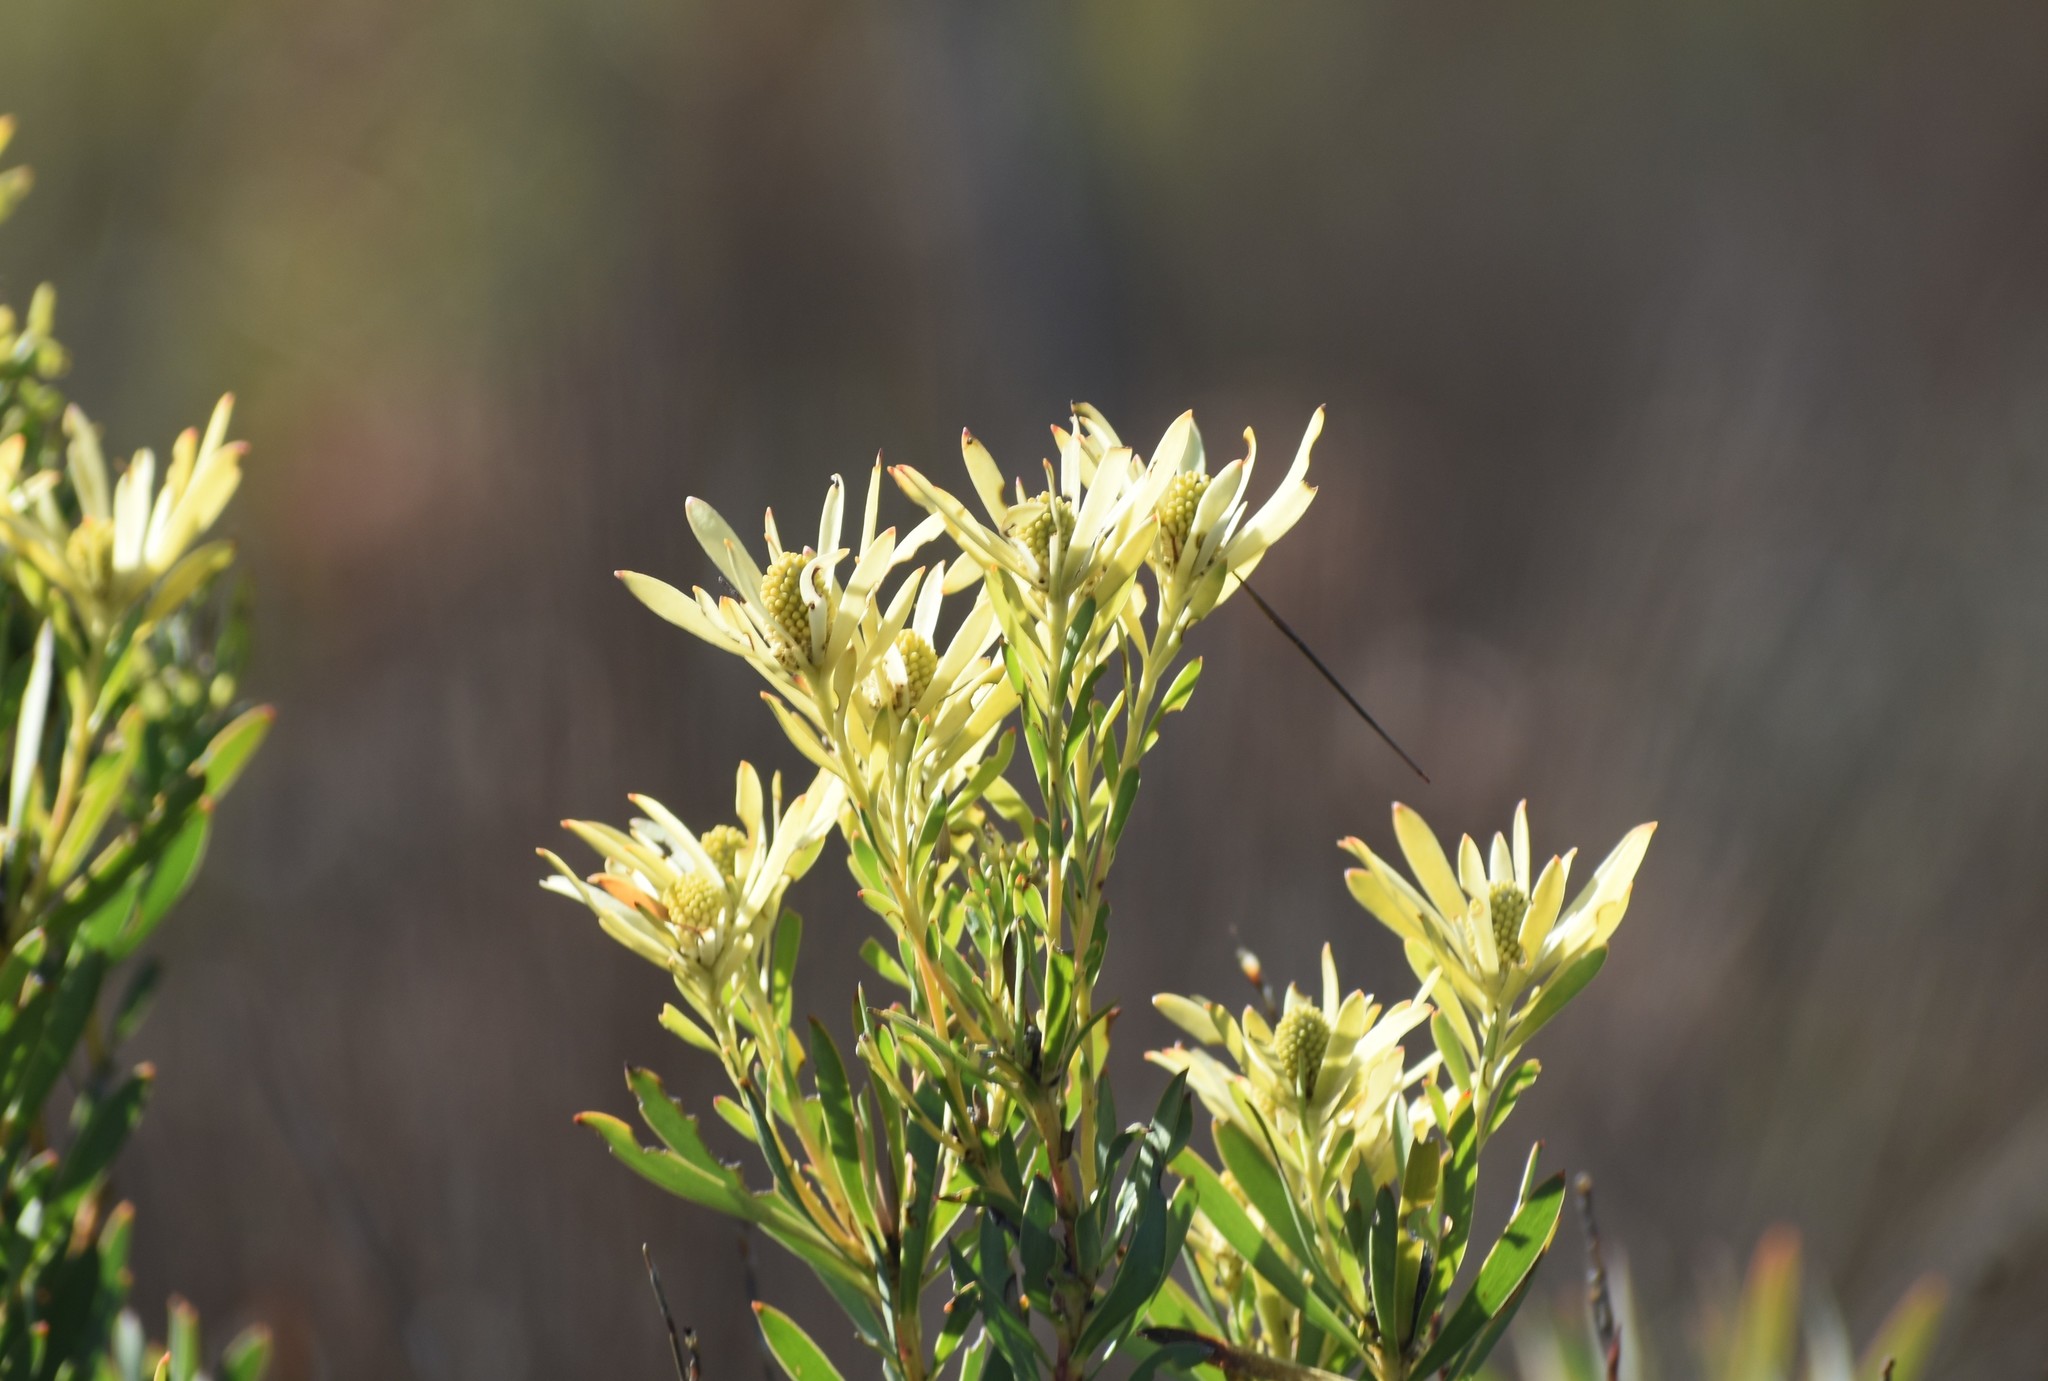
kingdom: Plantae
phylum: Tracheophyta
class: Magnoliopsida
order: Proteales
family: Proteaceae
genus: Leucadendron
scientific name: Leucadendron salignum
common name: Common sunshine conebush
